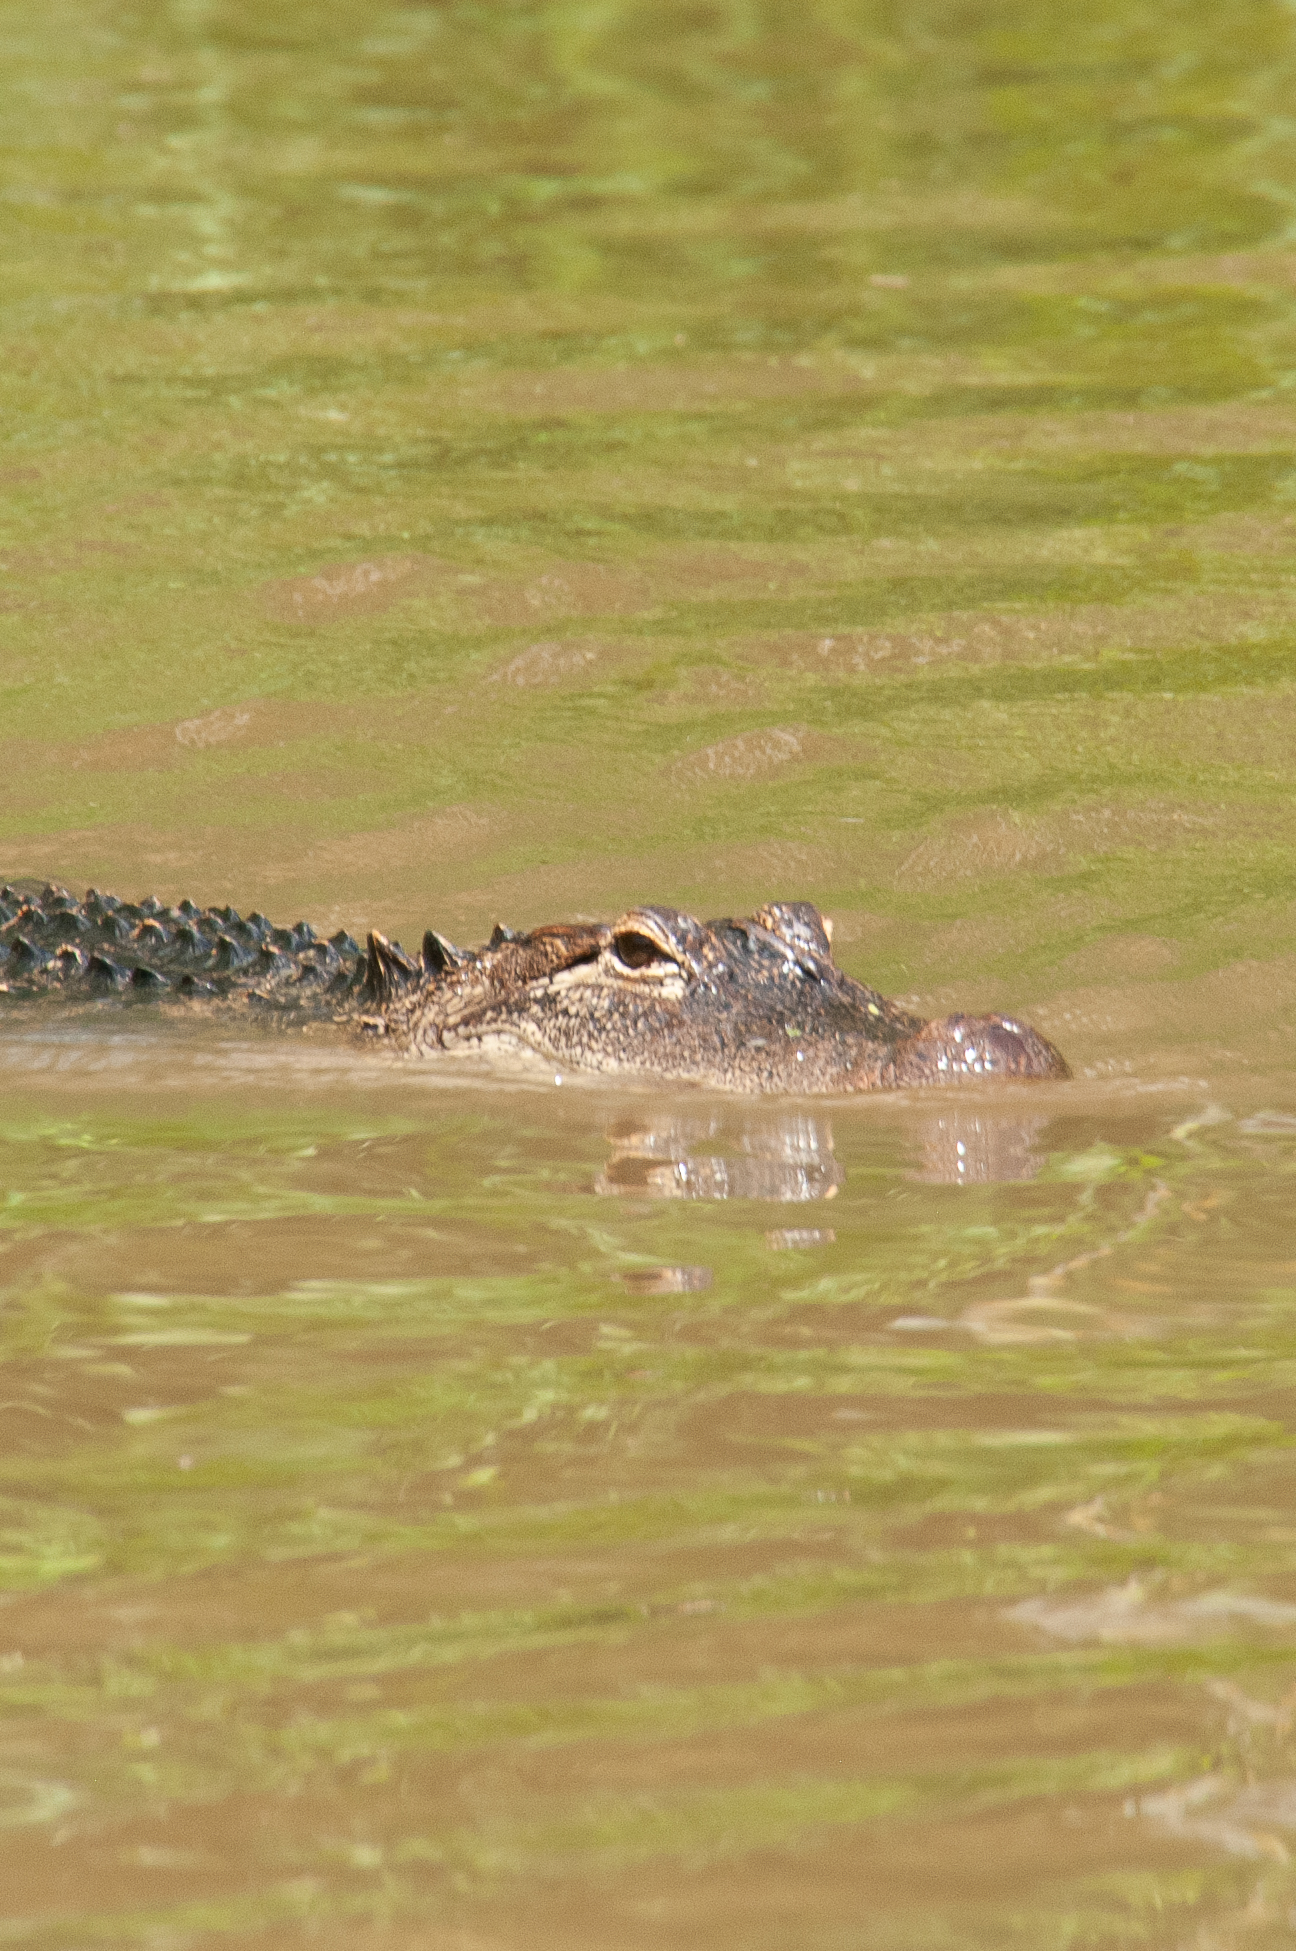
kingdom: Animalia
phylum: Chordata
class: Crocodylia
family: Alligatoridae
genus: Alligator
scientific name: Alligator mississippiensis
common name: American alligator
